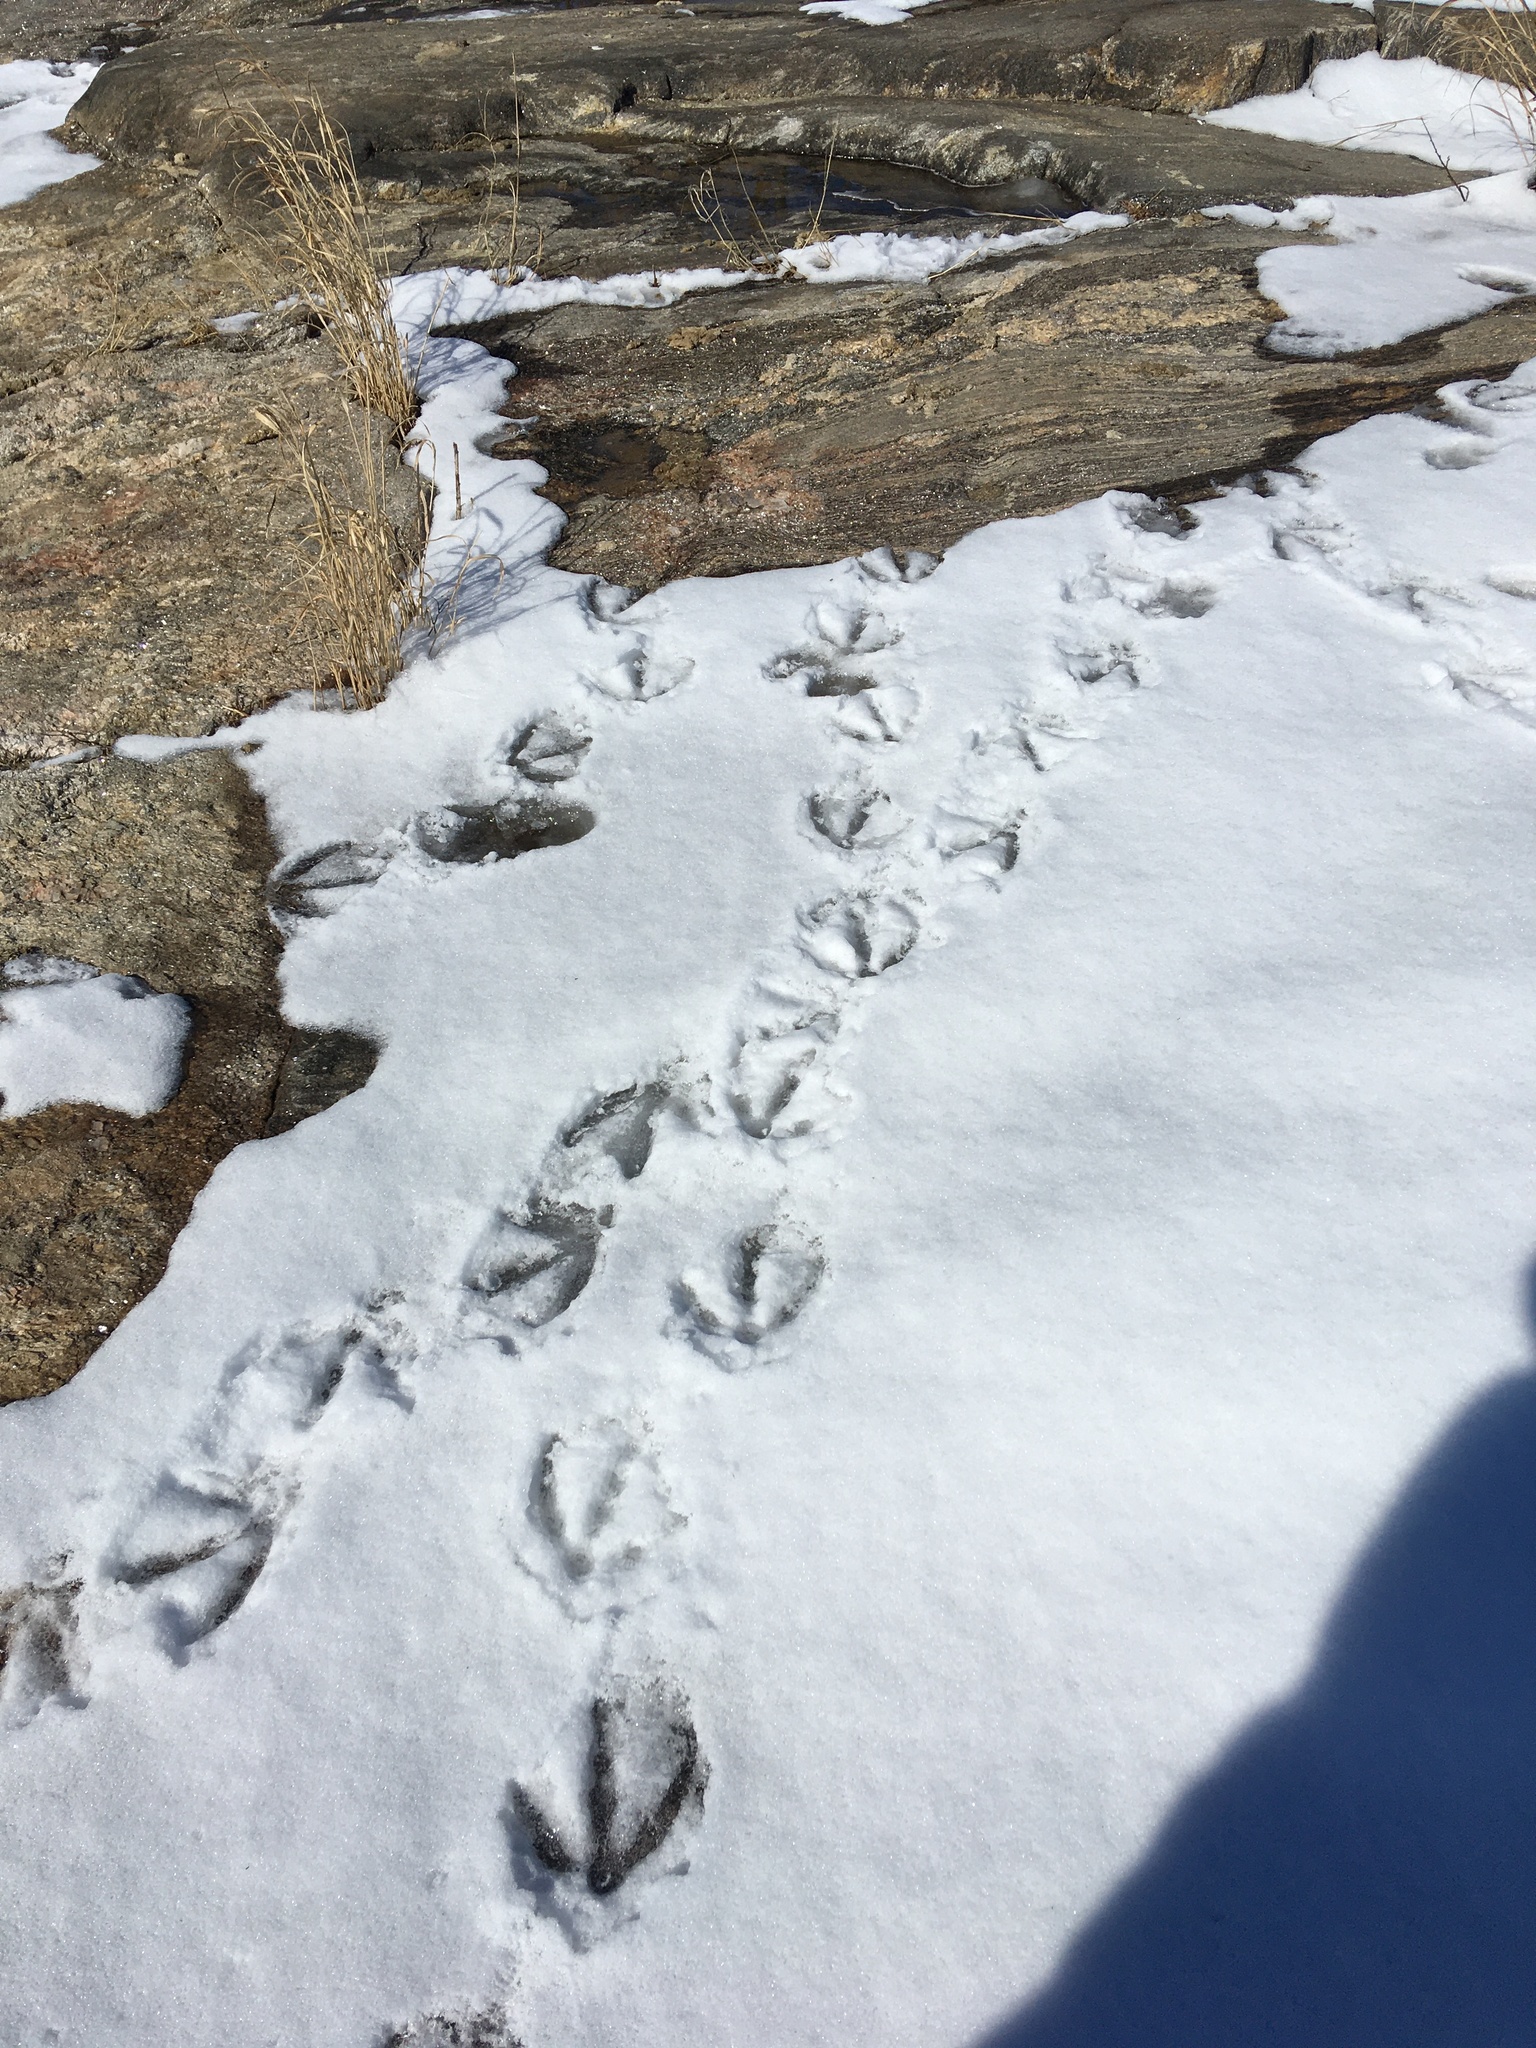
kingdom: Animalia
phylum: Chordata
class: Aves
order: Anseriformes
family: Anatidae
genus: Branta
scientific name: Branta canadensis
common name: Canada goose
